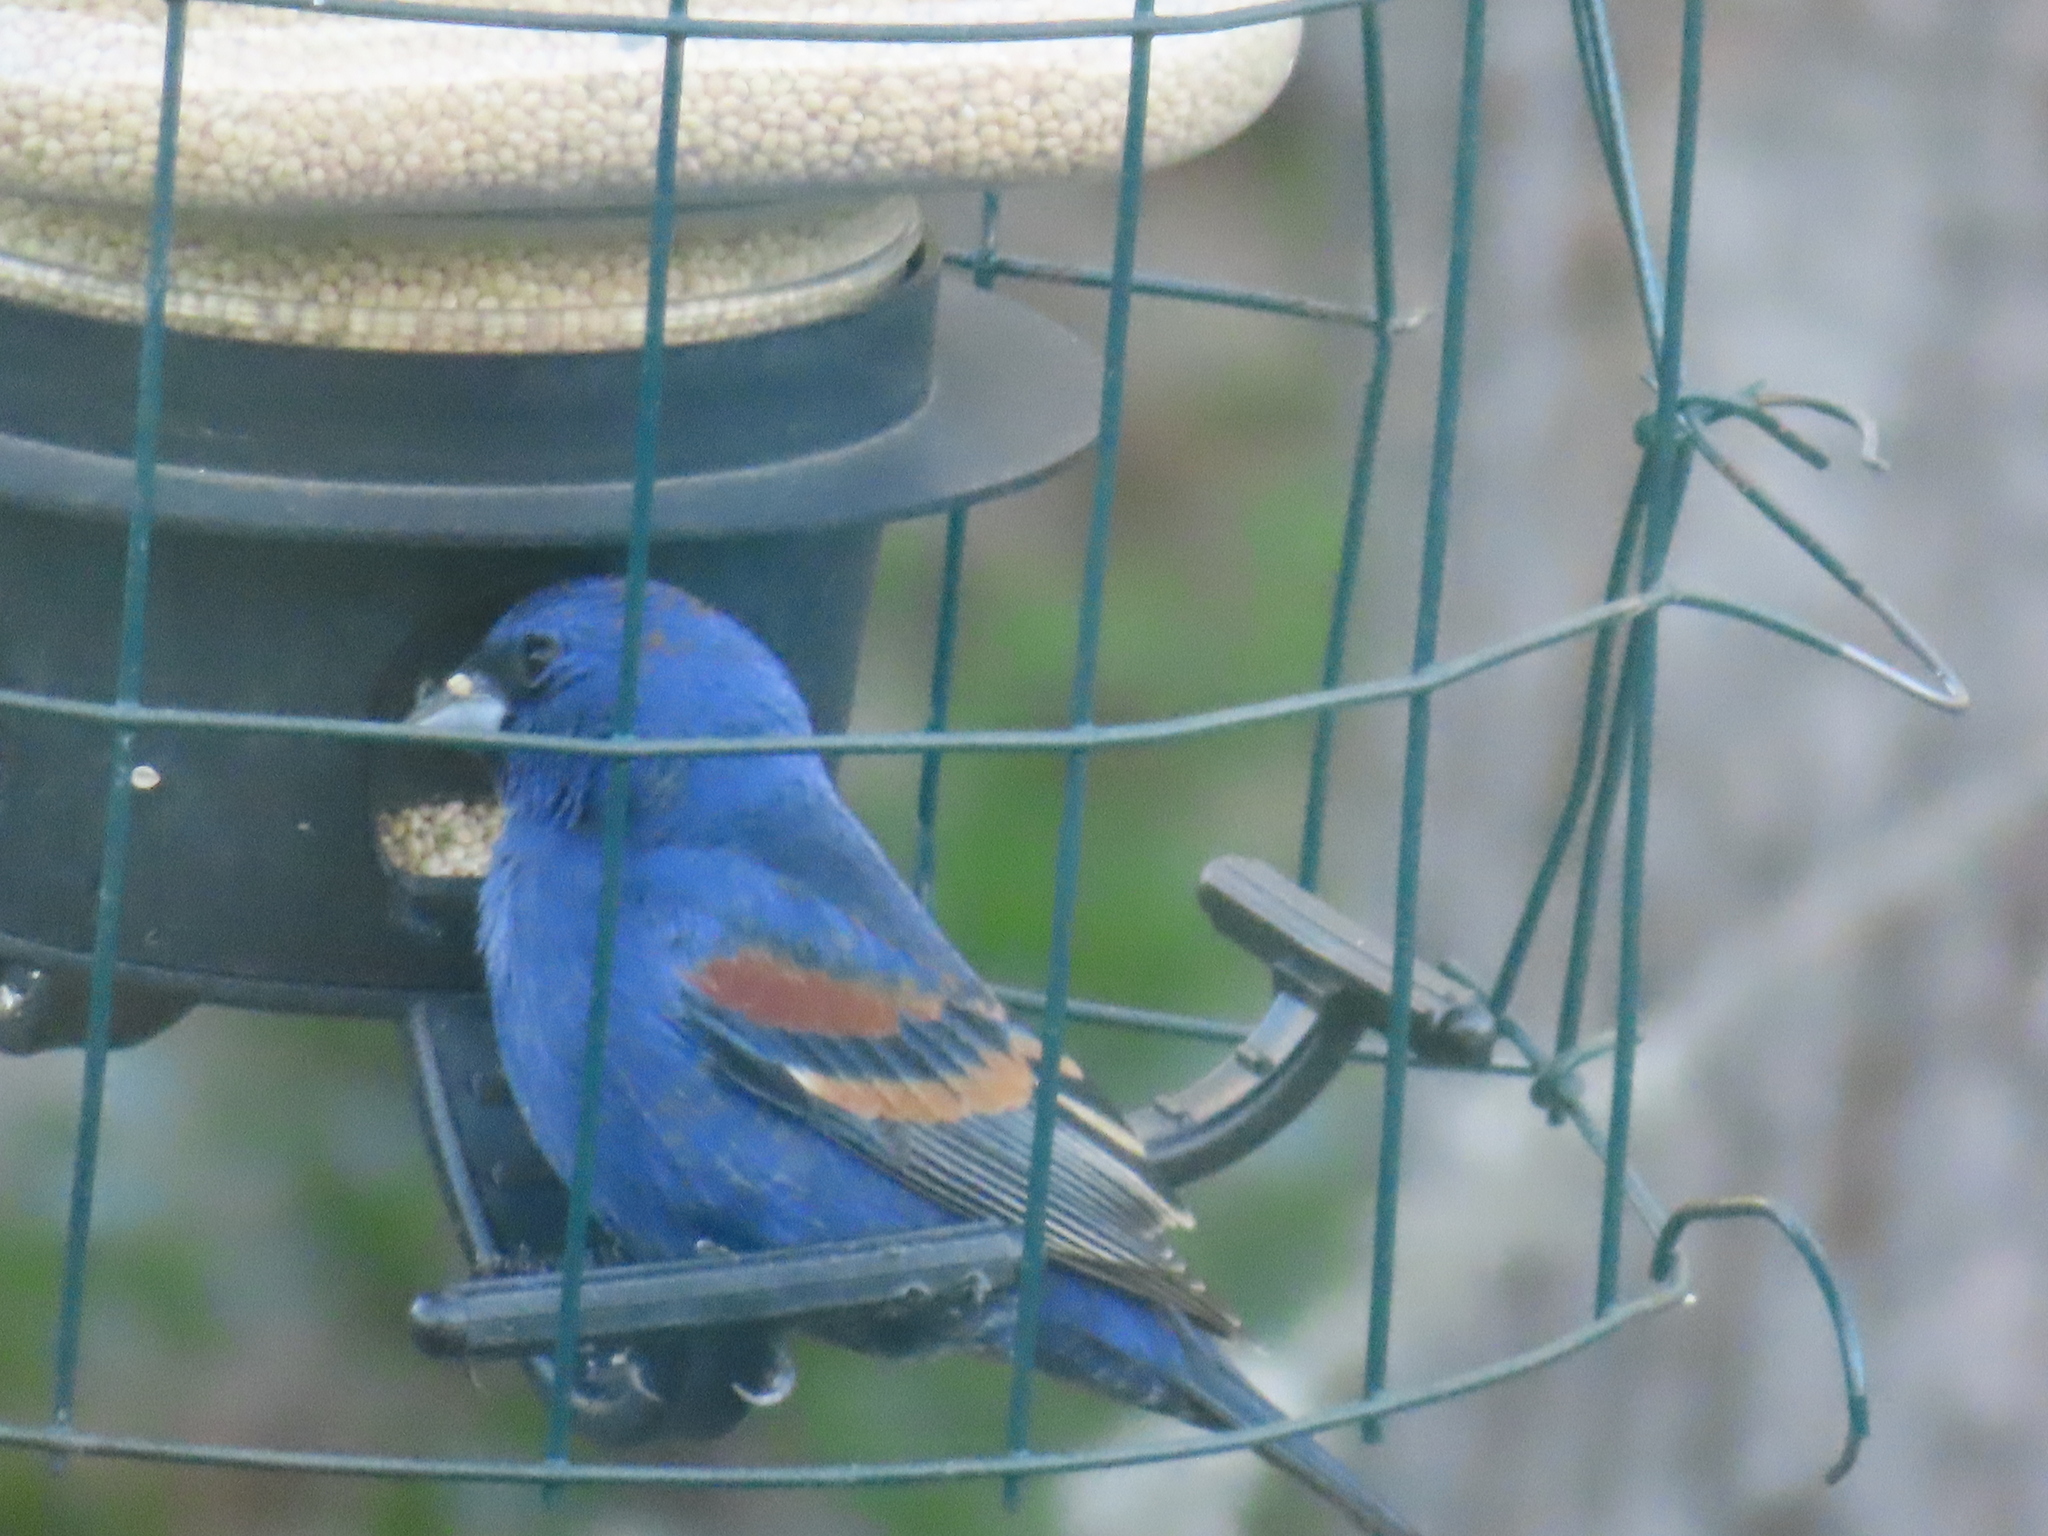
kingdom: Animalia
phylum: Chordata
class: Aves
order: Passeriformes
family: Cardinalidae
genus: Passerina
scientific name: Passerina caerulea
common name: Blue grosbeak
